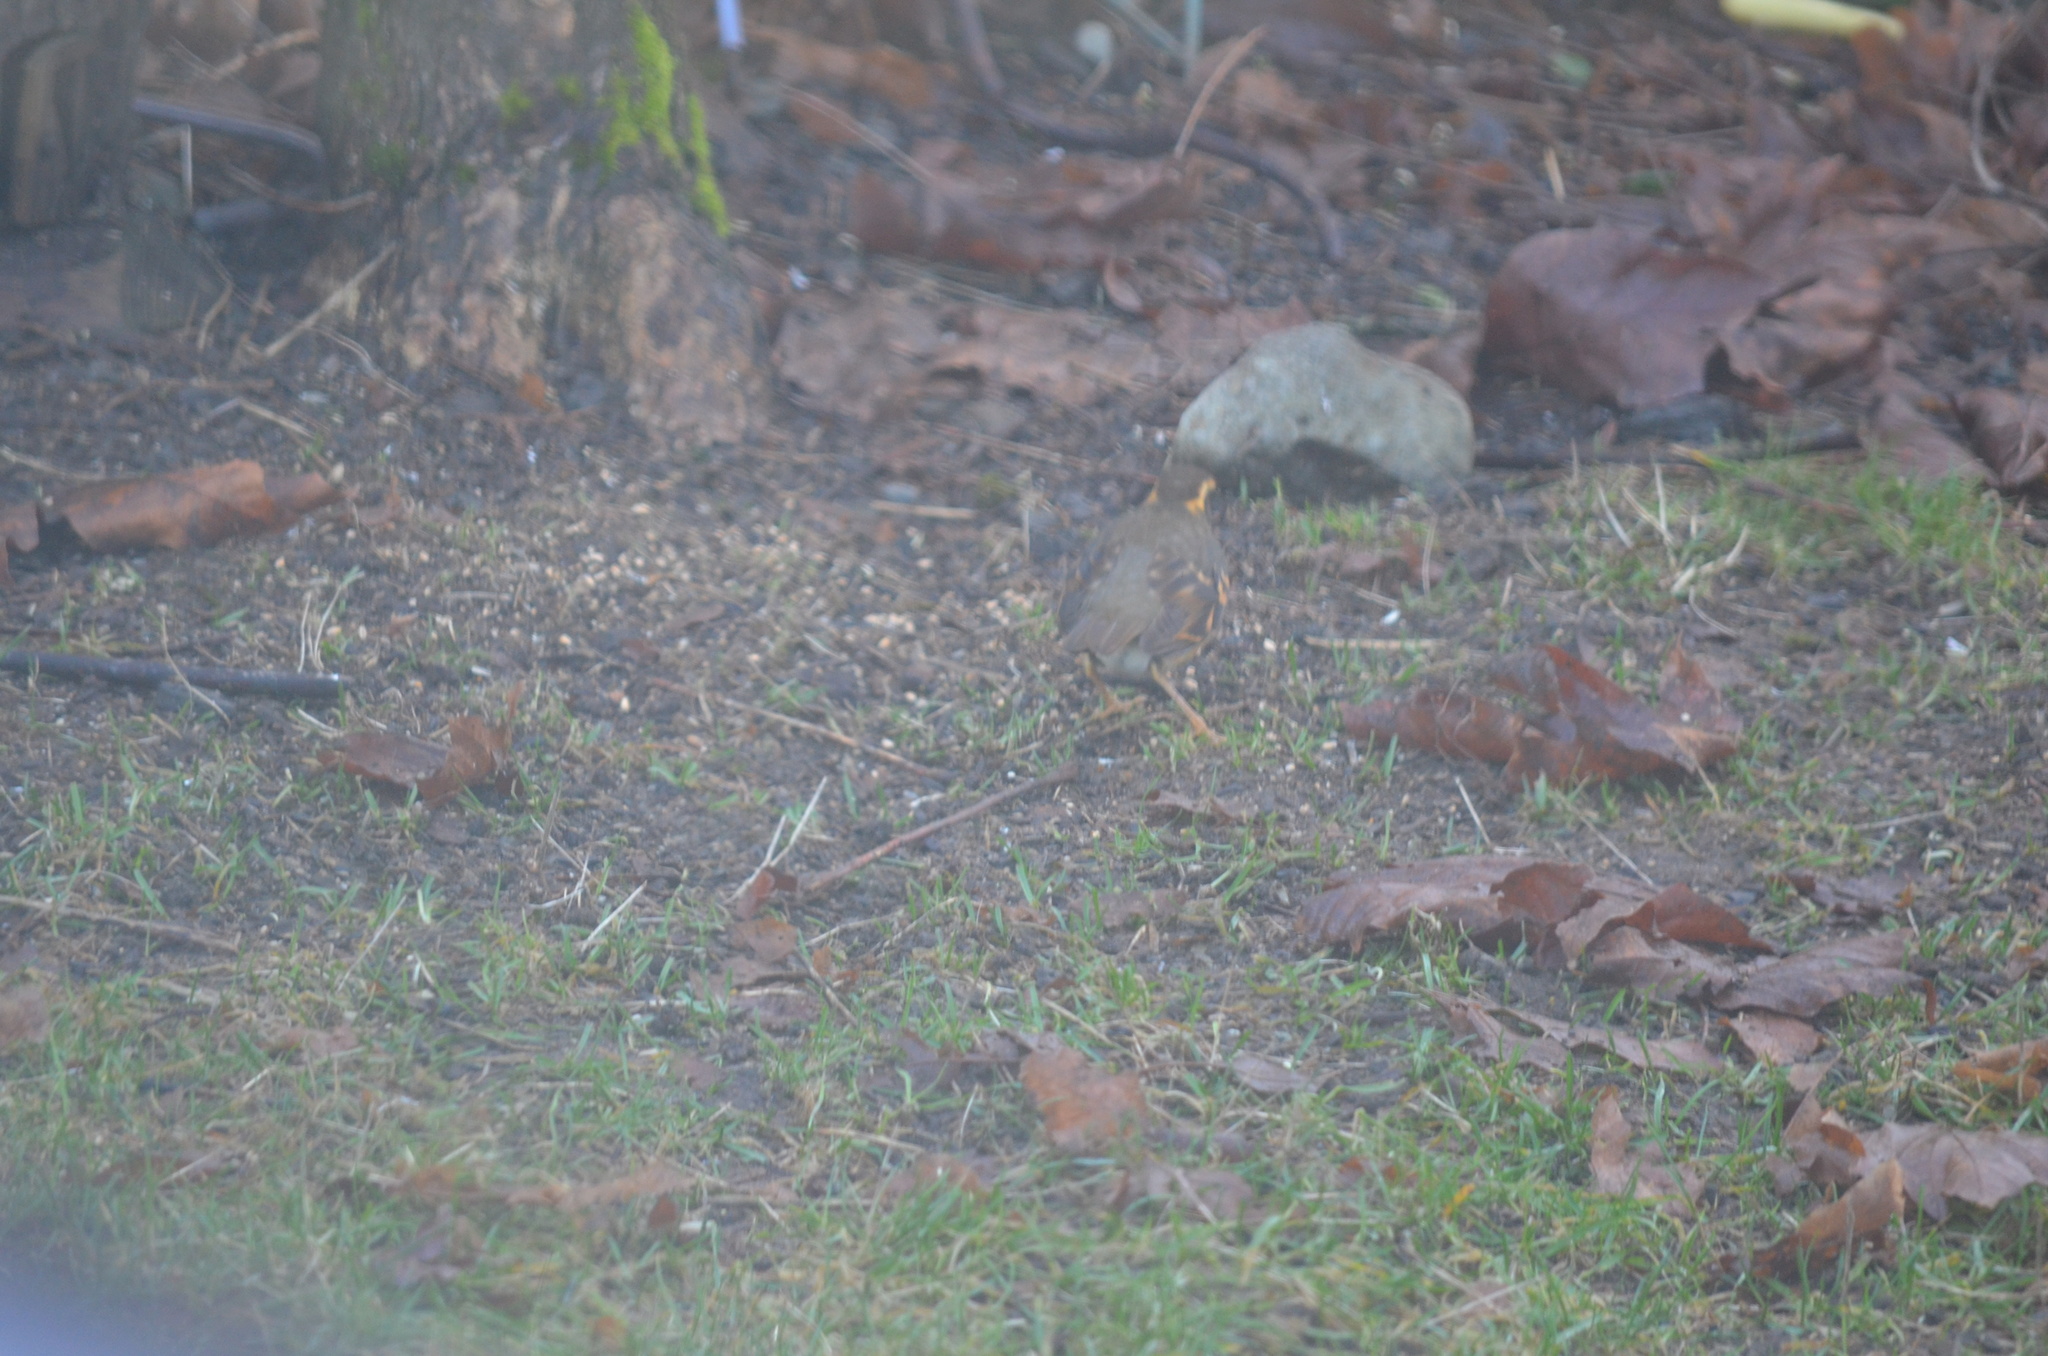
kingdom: Animalia
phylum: Chordata
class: Aves
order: Passeriformes
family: Turdidae
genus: Ixoreus
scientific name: Ixoreus naevius
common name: Varied thrush
